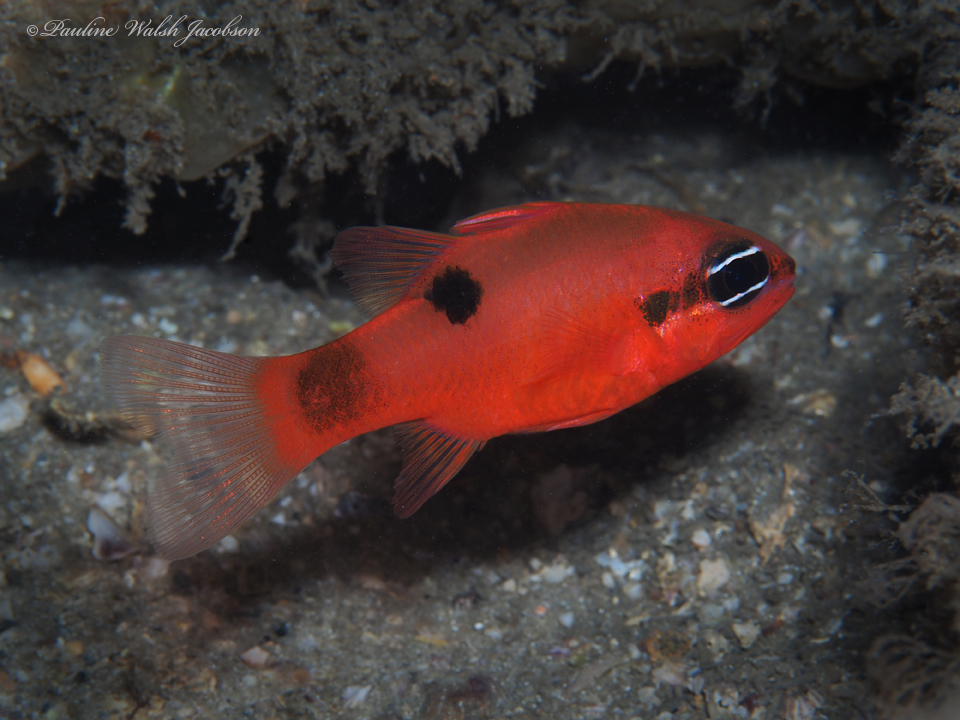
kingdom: Animalia
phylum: Chordata
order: Perciformes
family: Apogonidae
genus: Apogon
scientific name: Apogon maculatus
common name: Flamefish
